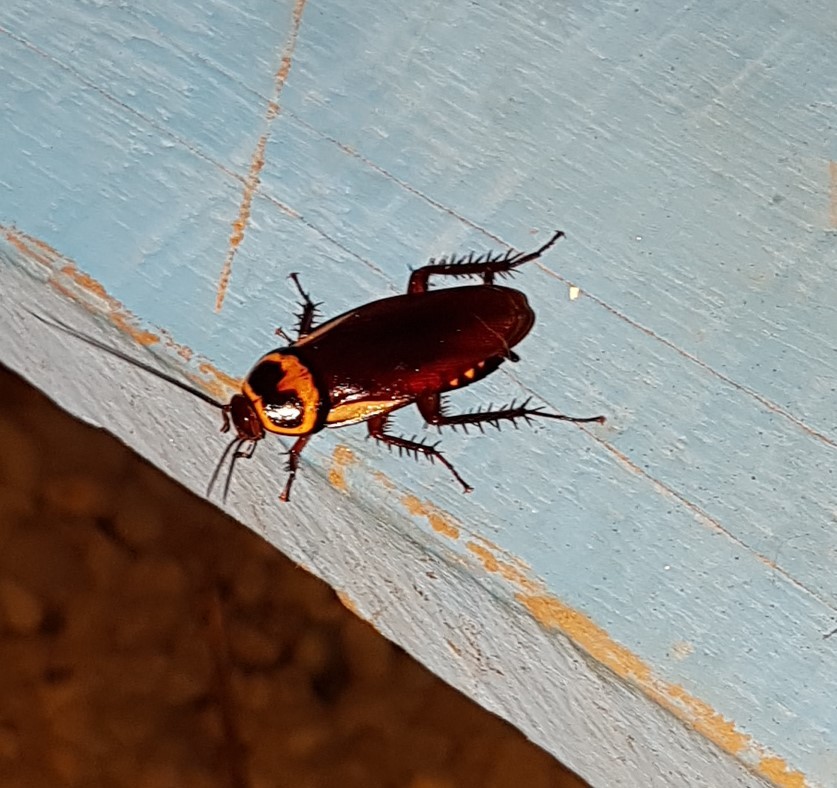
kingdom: Animalia
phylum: Arthropoda
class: Insecta
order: Blattodea
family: Blattidae
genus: Periplaneta
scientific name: Periplaneta australasiae
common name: Australian cockroach
